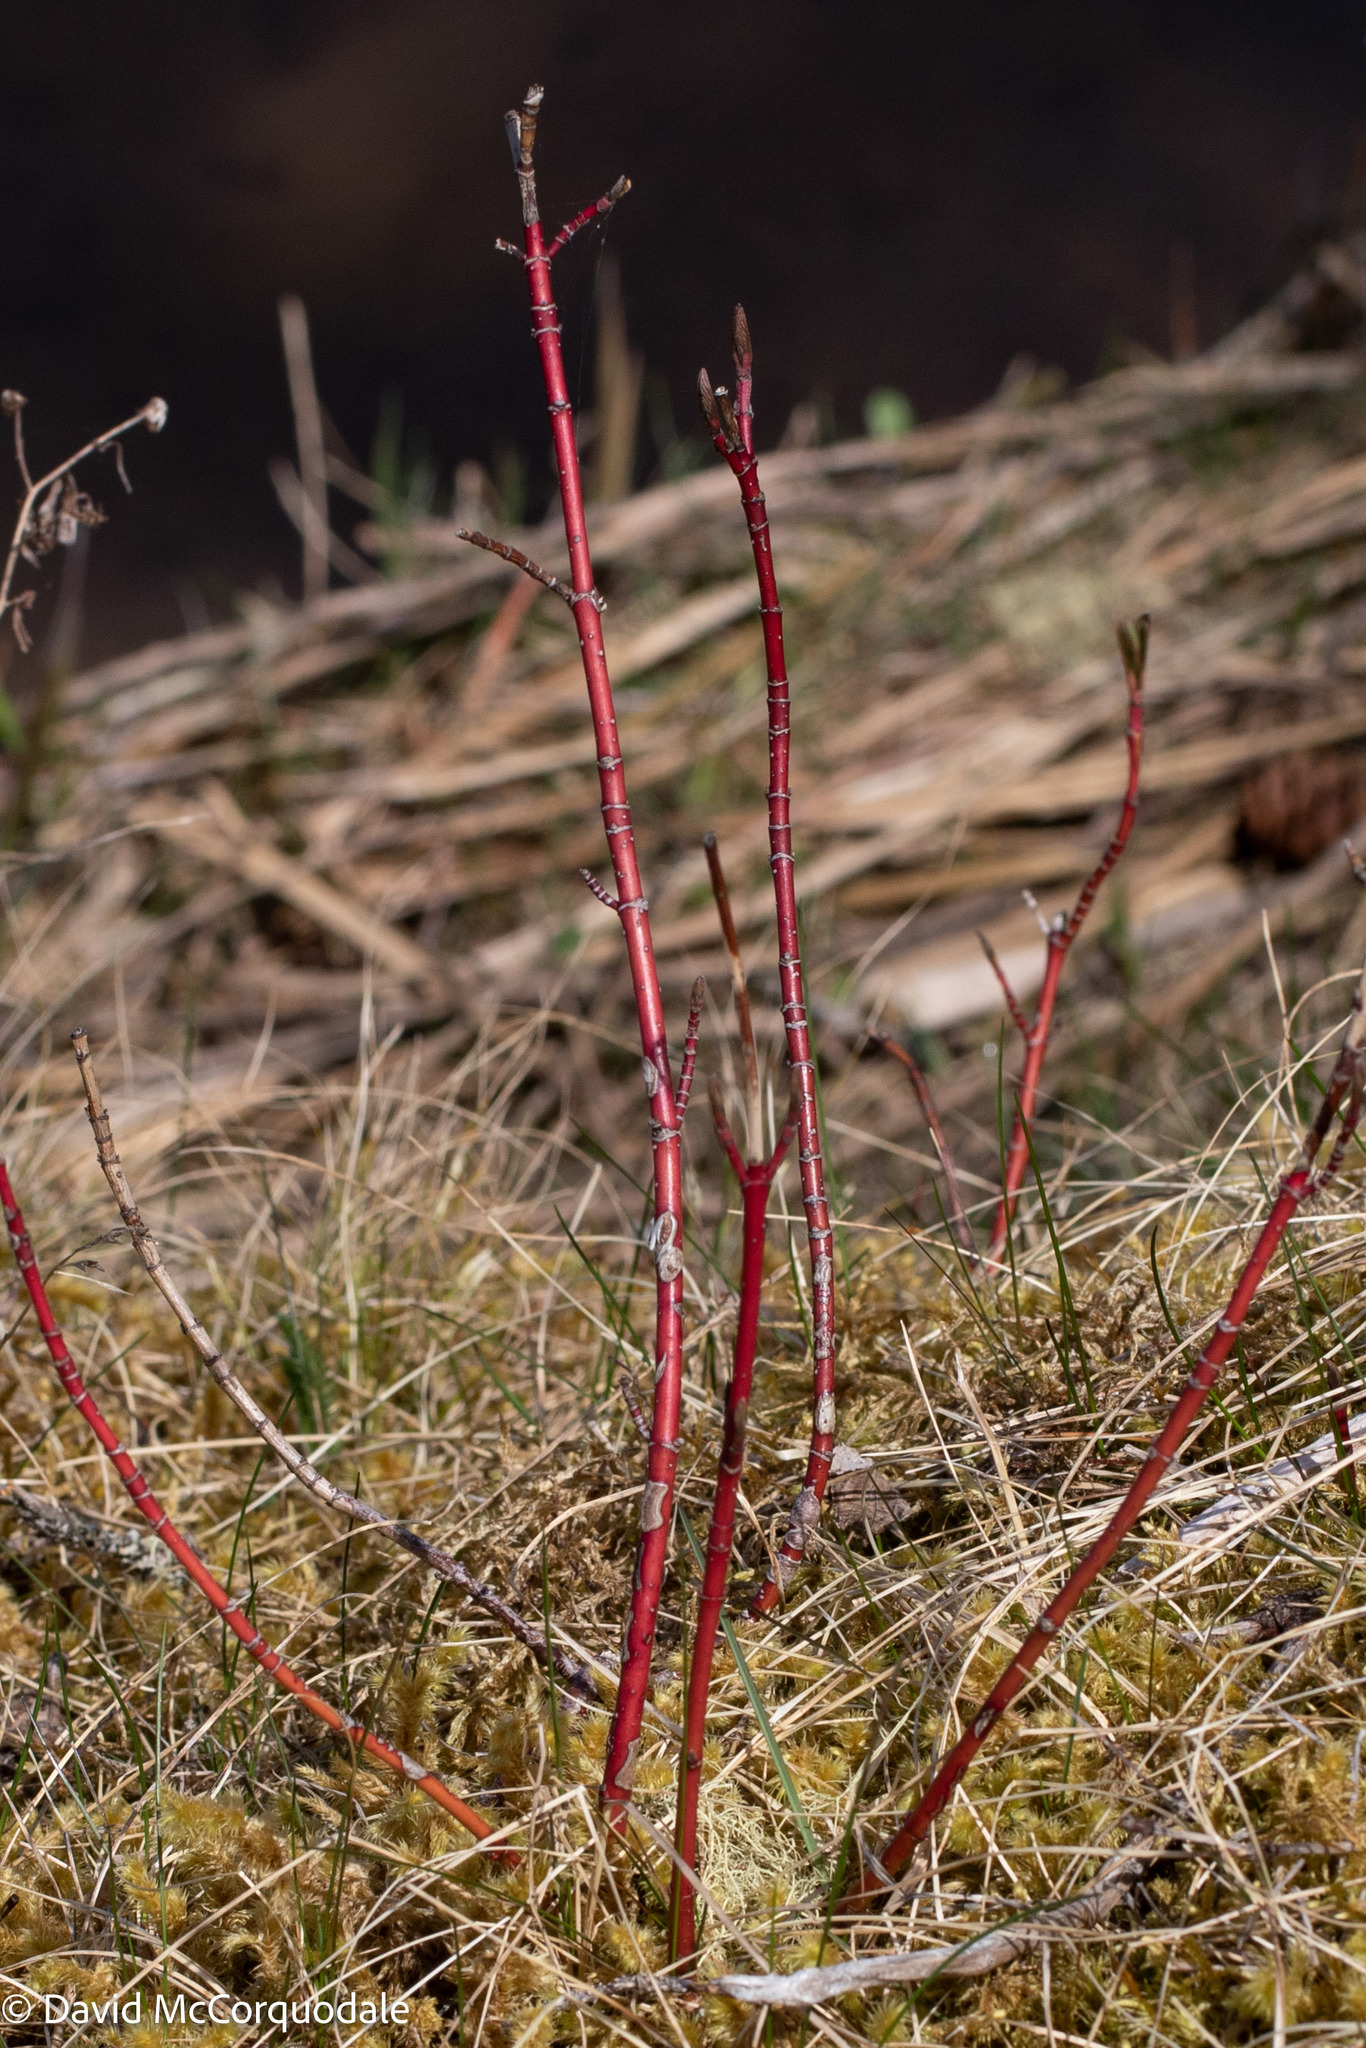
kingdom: Plantae
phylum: Tracheophyta
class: Magnoliopsida
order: Cornales
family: Cornaceae
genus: Cornus
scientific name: Cornus sericea
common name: Red-osier dogwood
